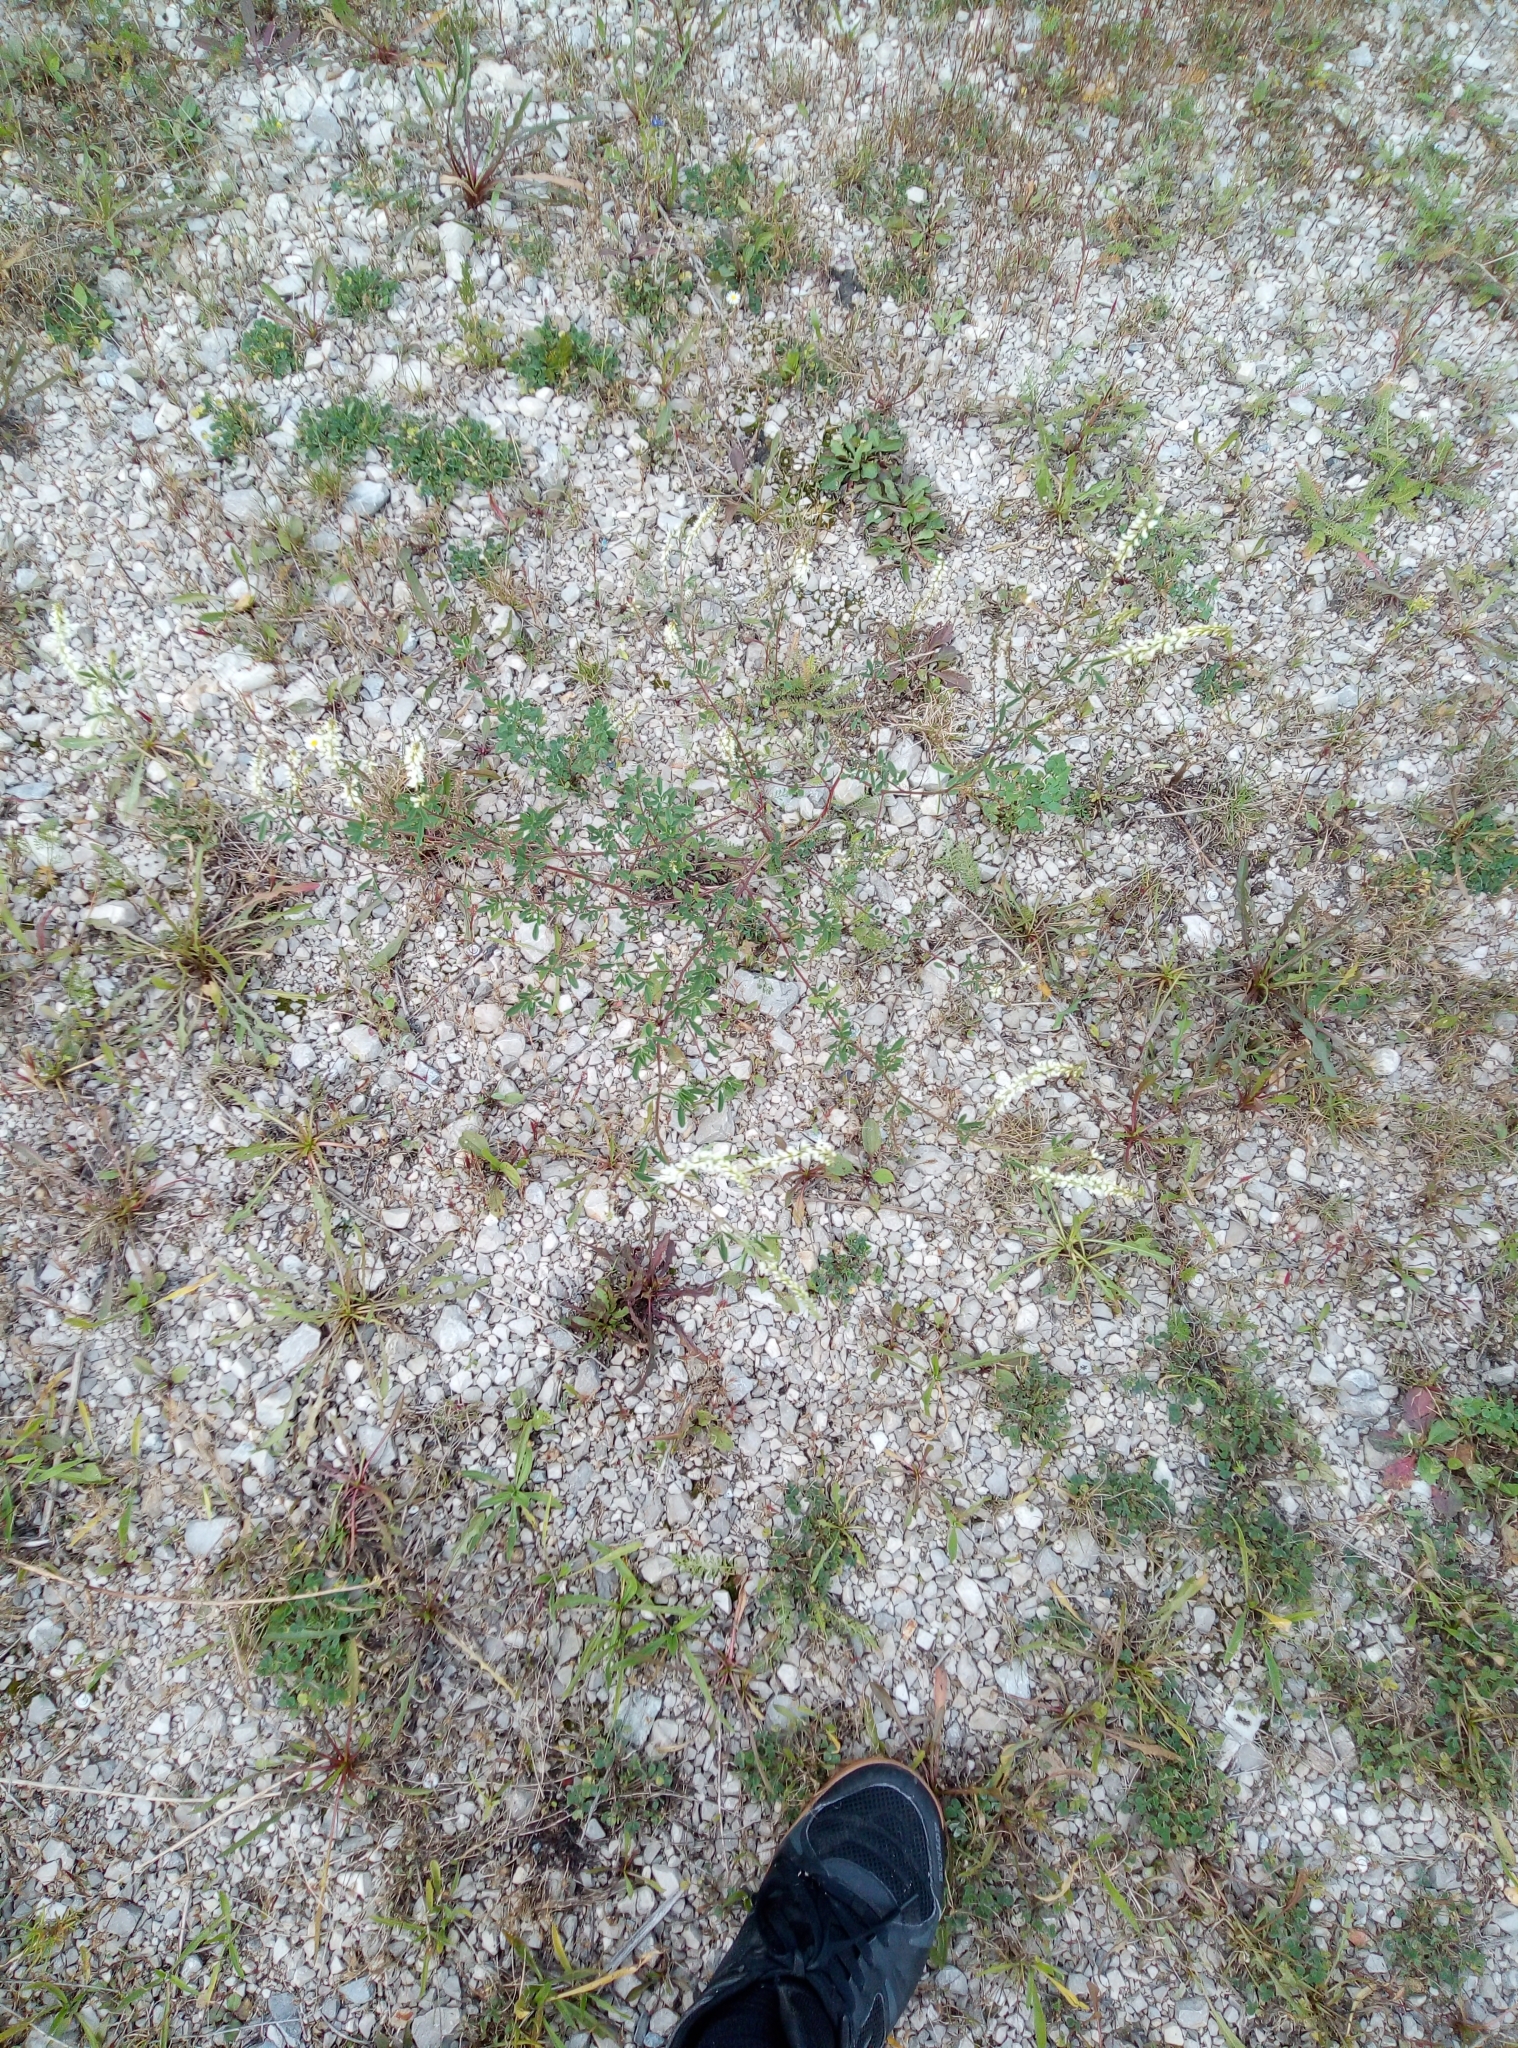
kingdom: Plantae
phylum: Tracheophyta
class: Magnoliopsida
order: Fabales
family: Fabaceae
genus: Melilotus
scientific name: Melilotus albus
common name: White melilot
